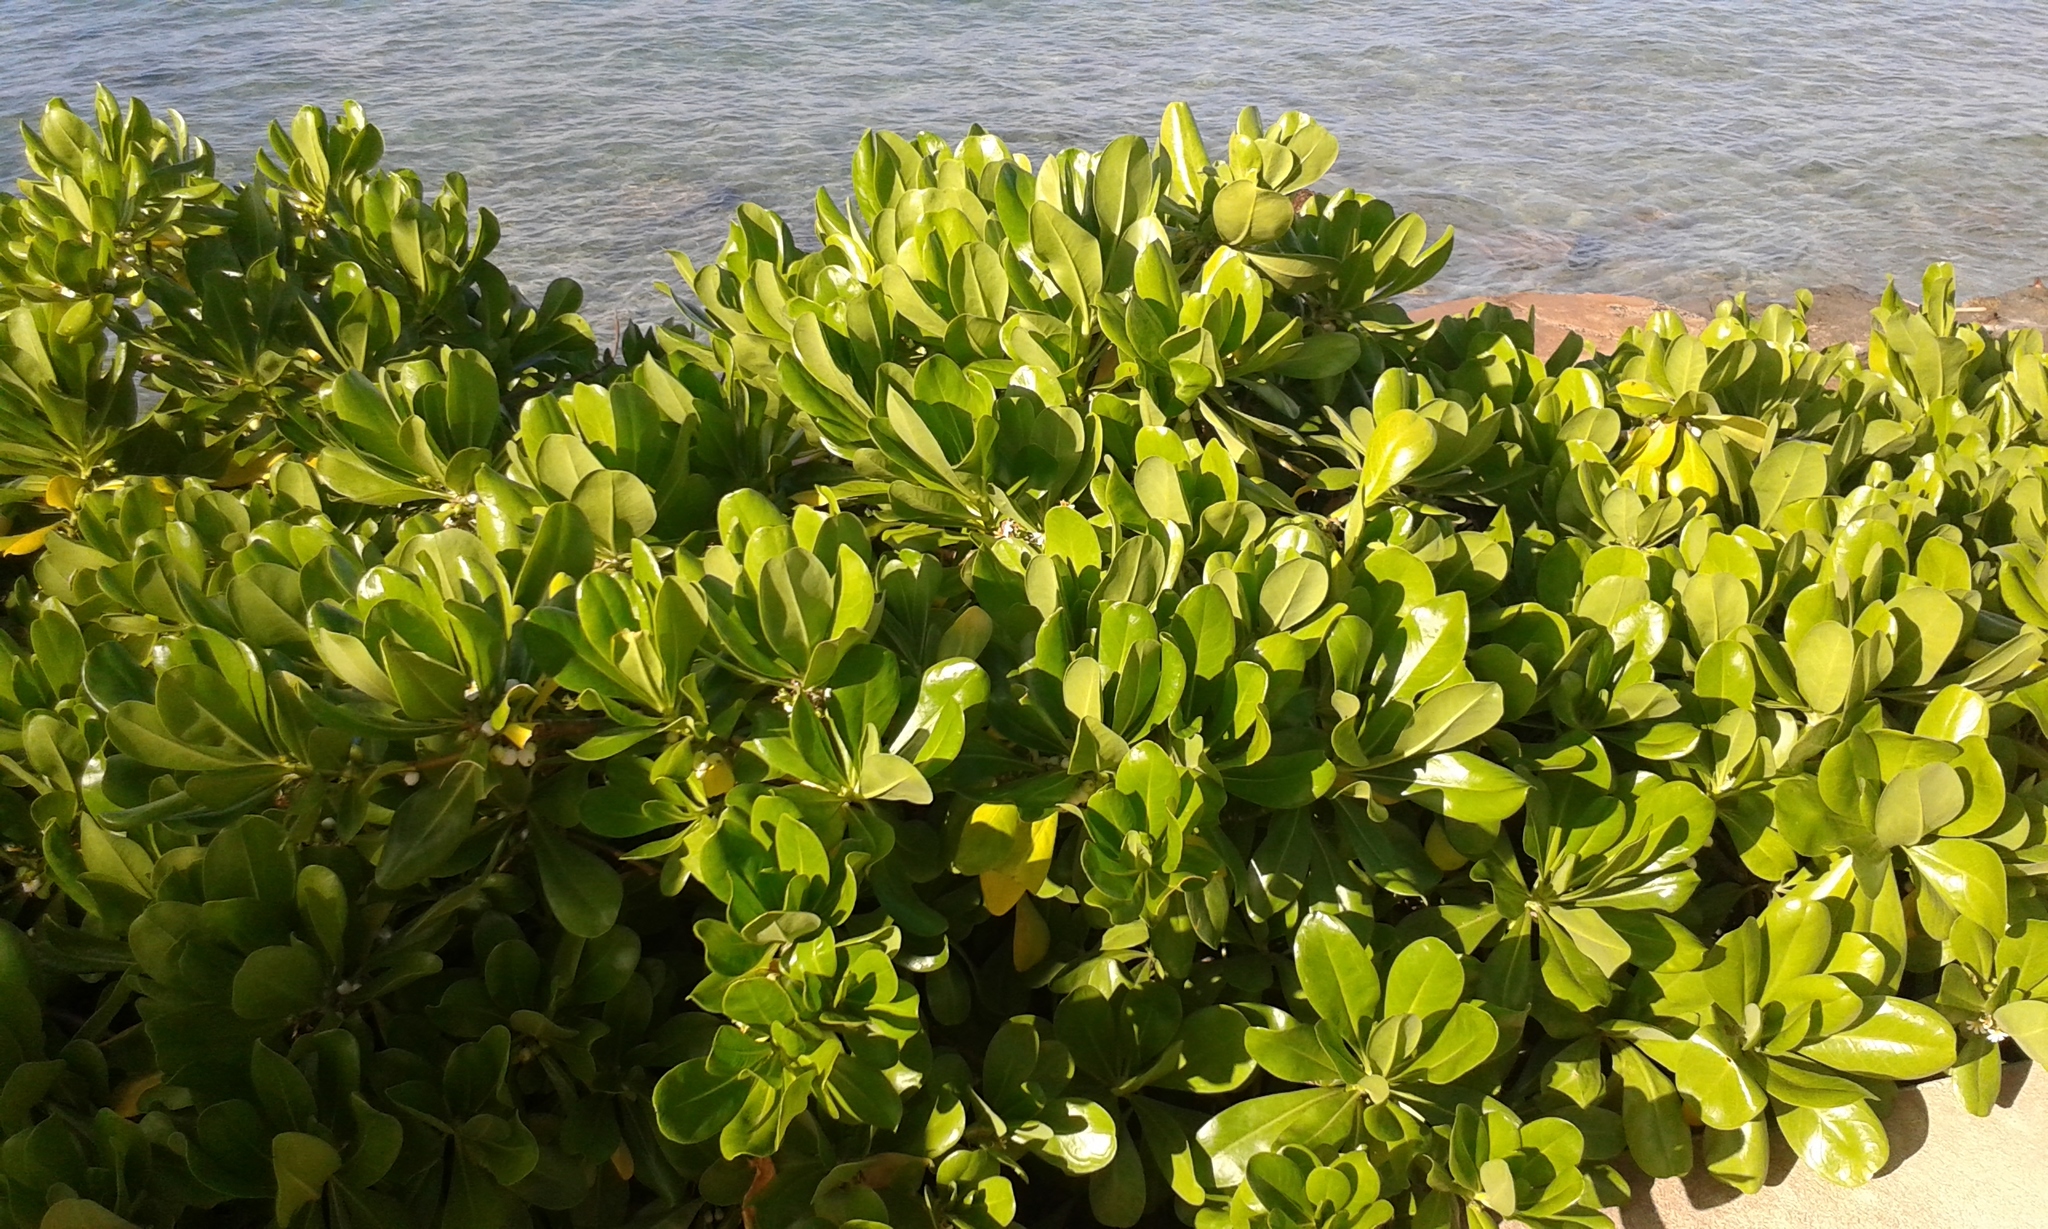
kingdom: Plantae
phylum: Tracheophyta
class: Magnoliopsida
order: Asterales
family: Goodeniaceae
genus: Scaevola
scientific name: Scaevola taccada
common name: Sea lettucetree
